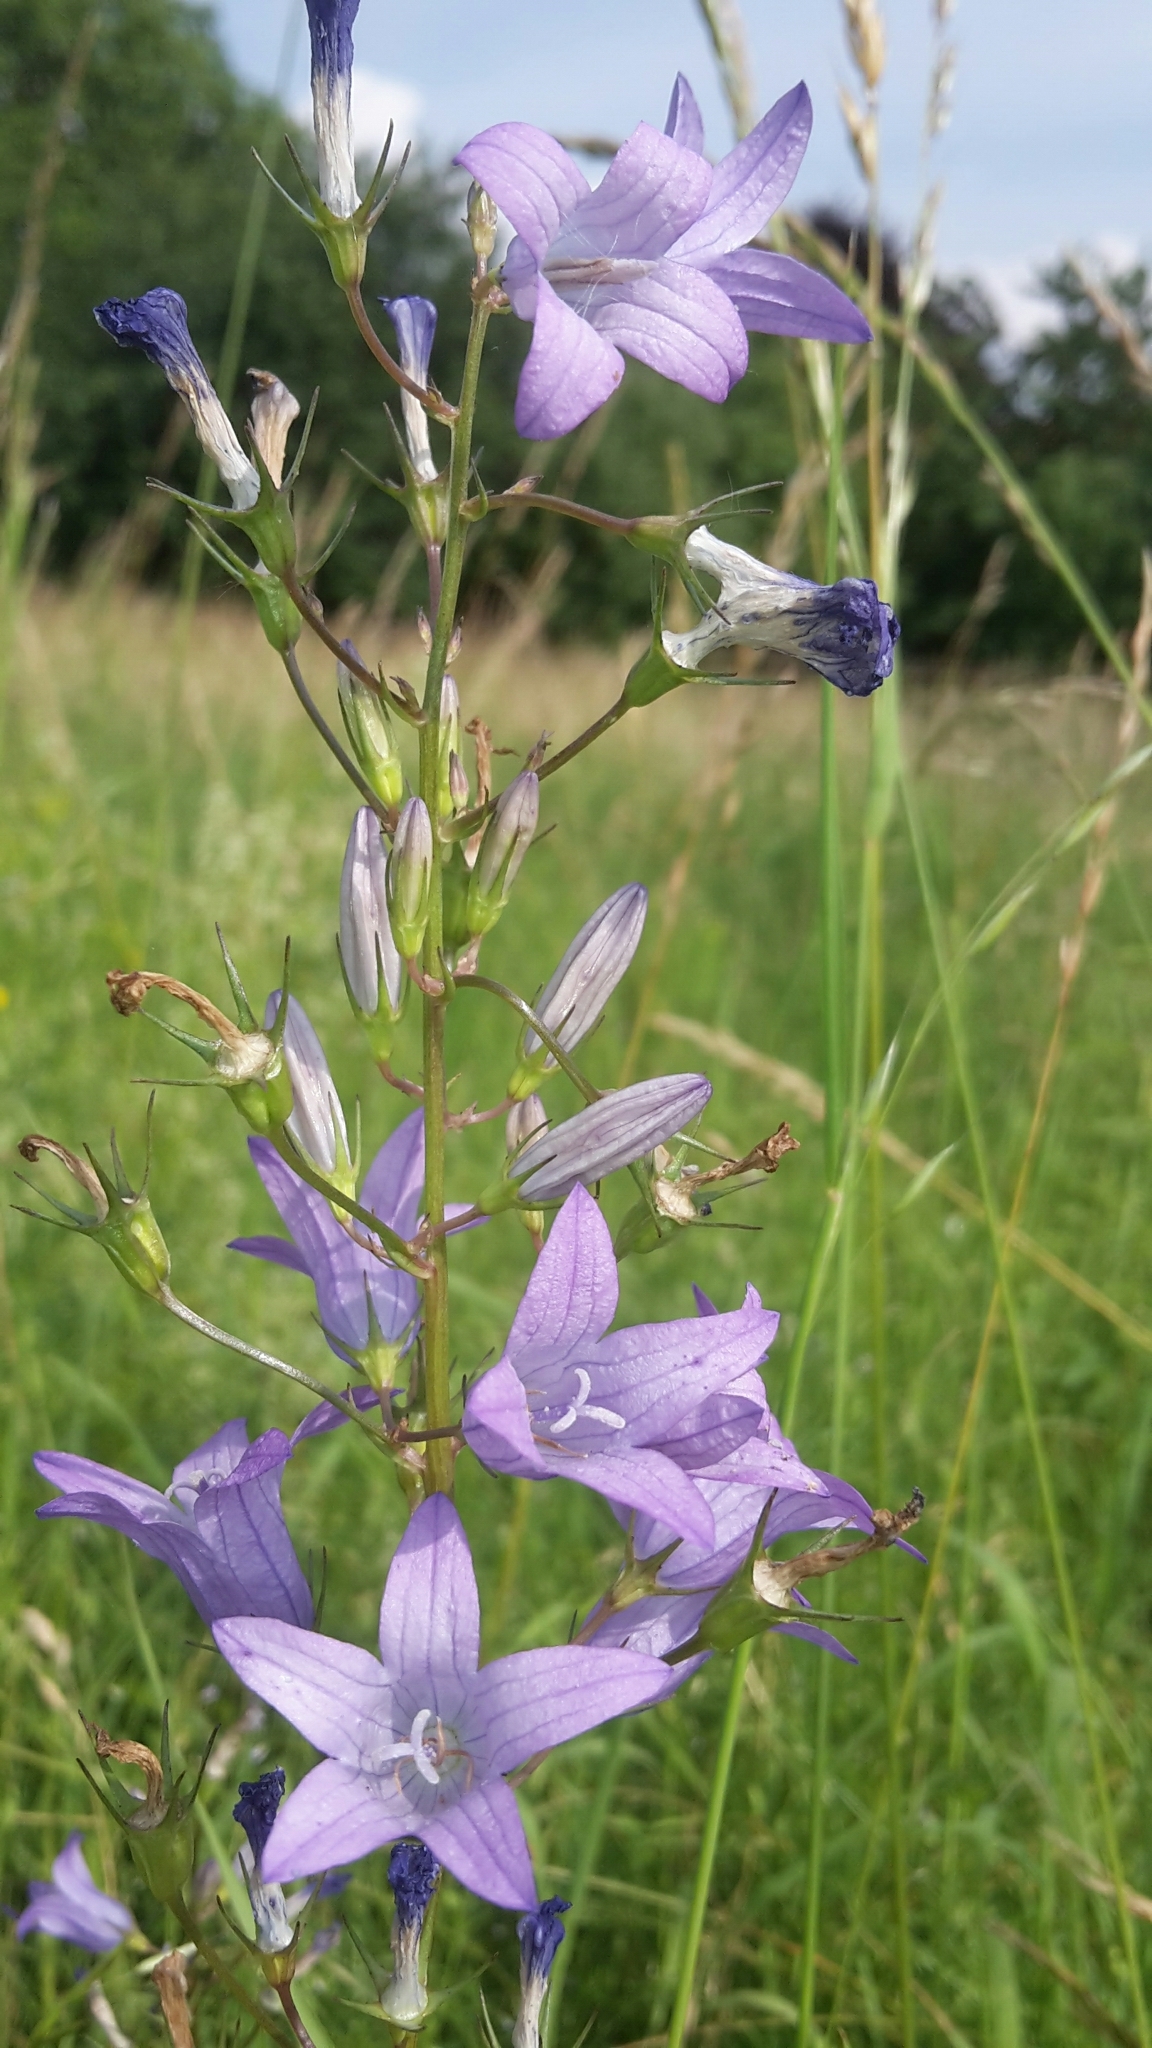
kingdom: Plantae
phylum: Tracheophyta
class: Magnoliopsida
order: Asterales
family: Campanulaceae
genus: Campanula
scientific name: Campanula rapunculus
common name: Rampion bellflower
